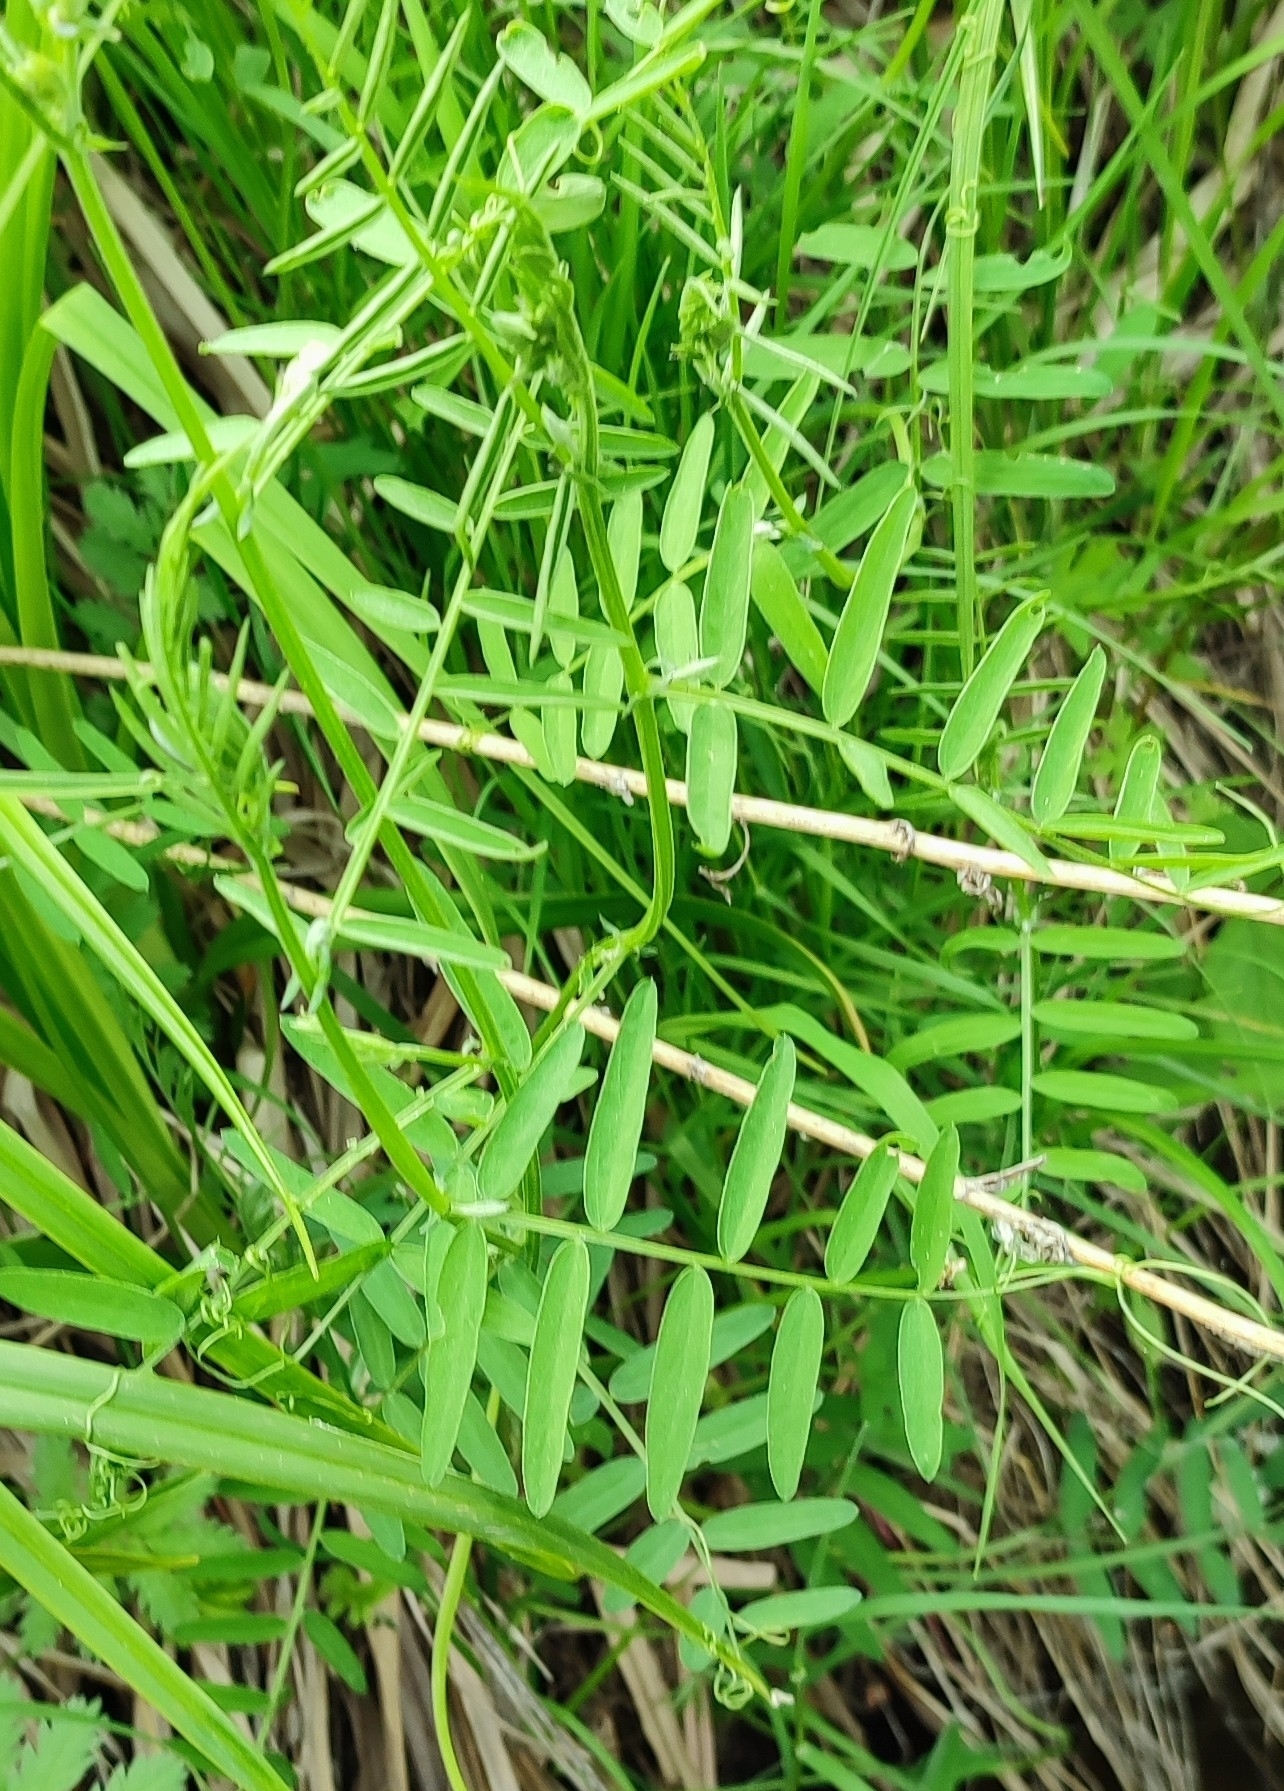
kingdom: Plantae
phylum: Tracheophyta
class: Magnoliopsida
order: Fabales
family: Fabaceae
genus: Vicia
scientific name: Vicia cracca
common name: Bird vetch
